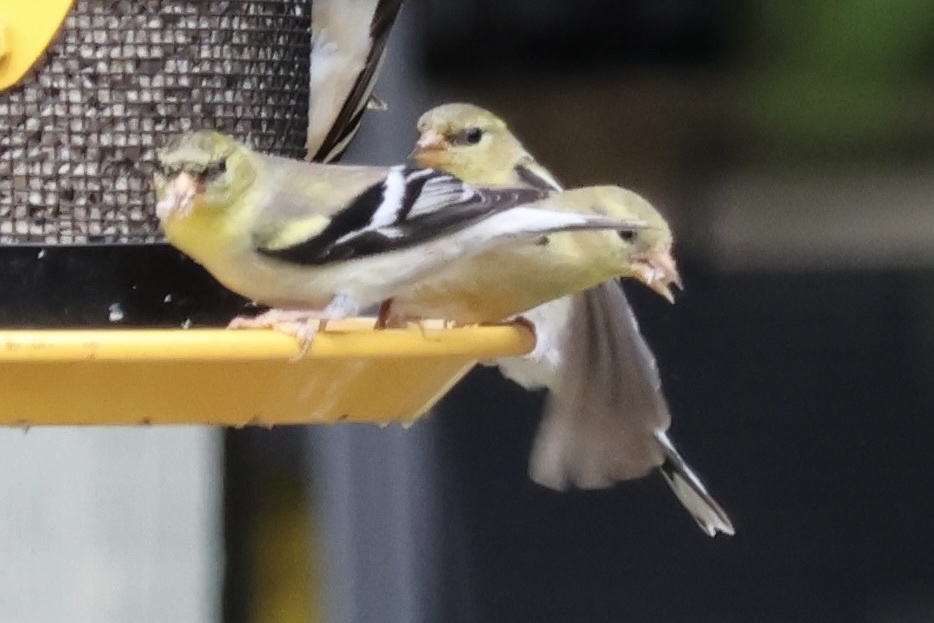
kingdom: Animalia
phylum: Chordata
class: Aves
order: Passeriformes
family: Fringillidae
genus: Spinus
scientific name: Spinus tristis
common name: American goldfinch
